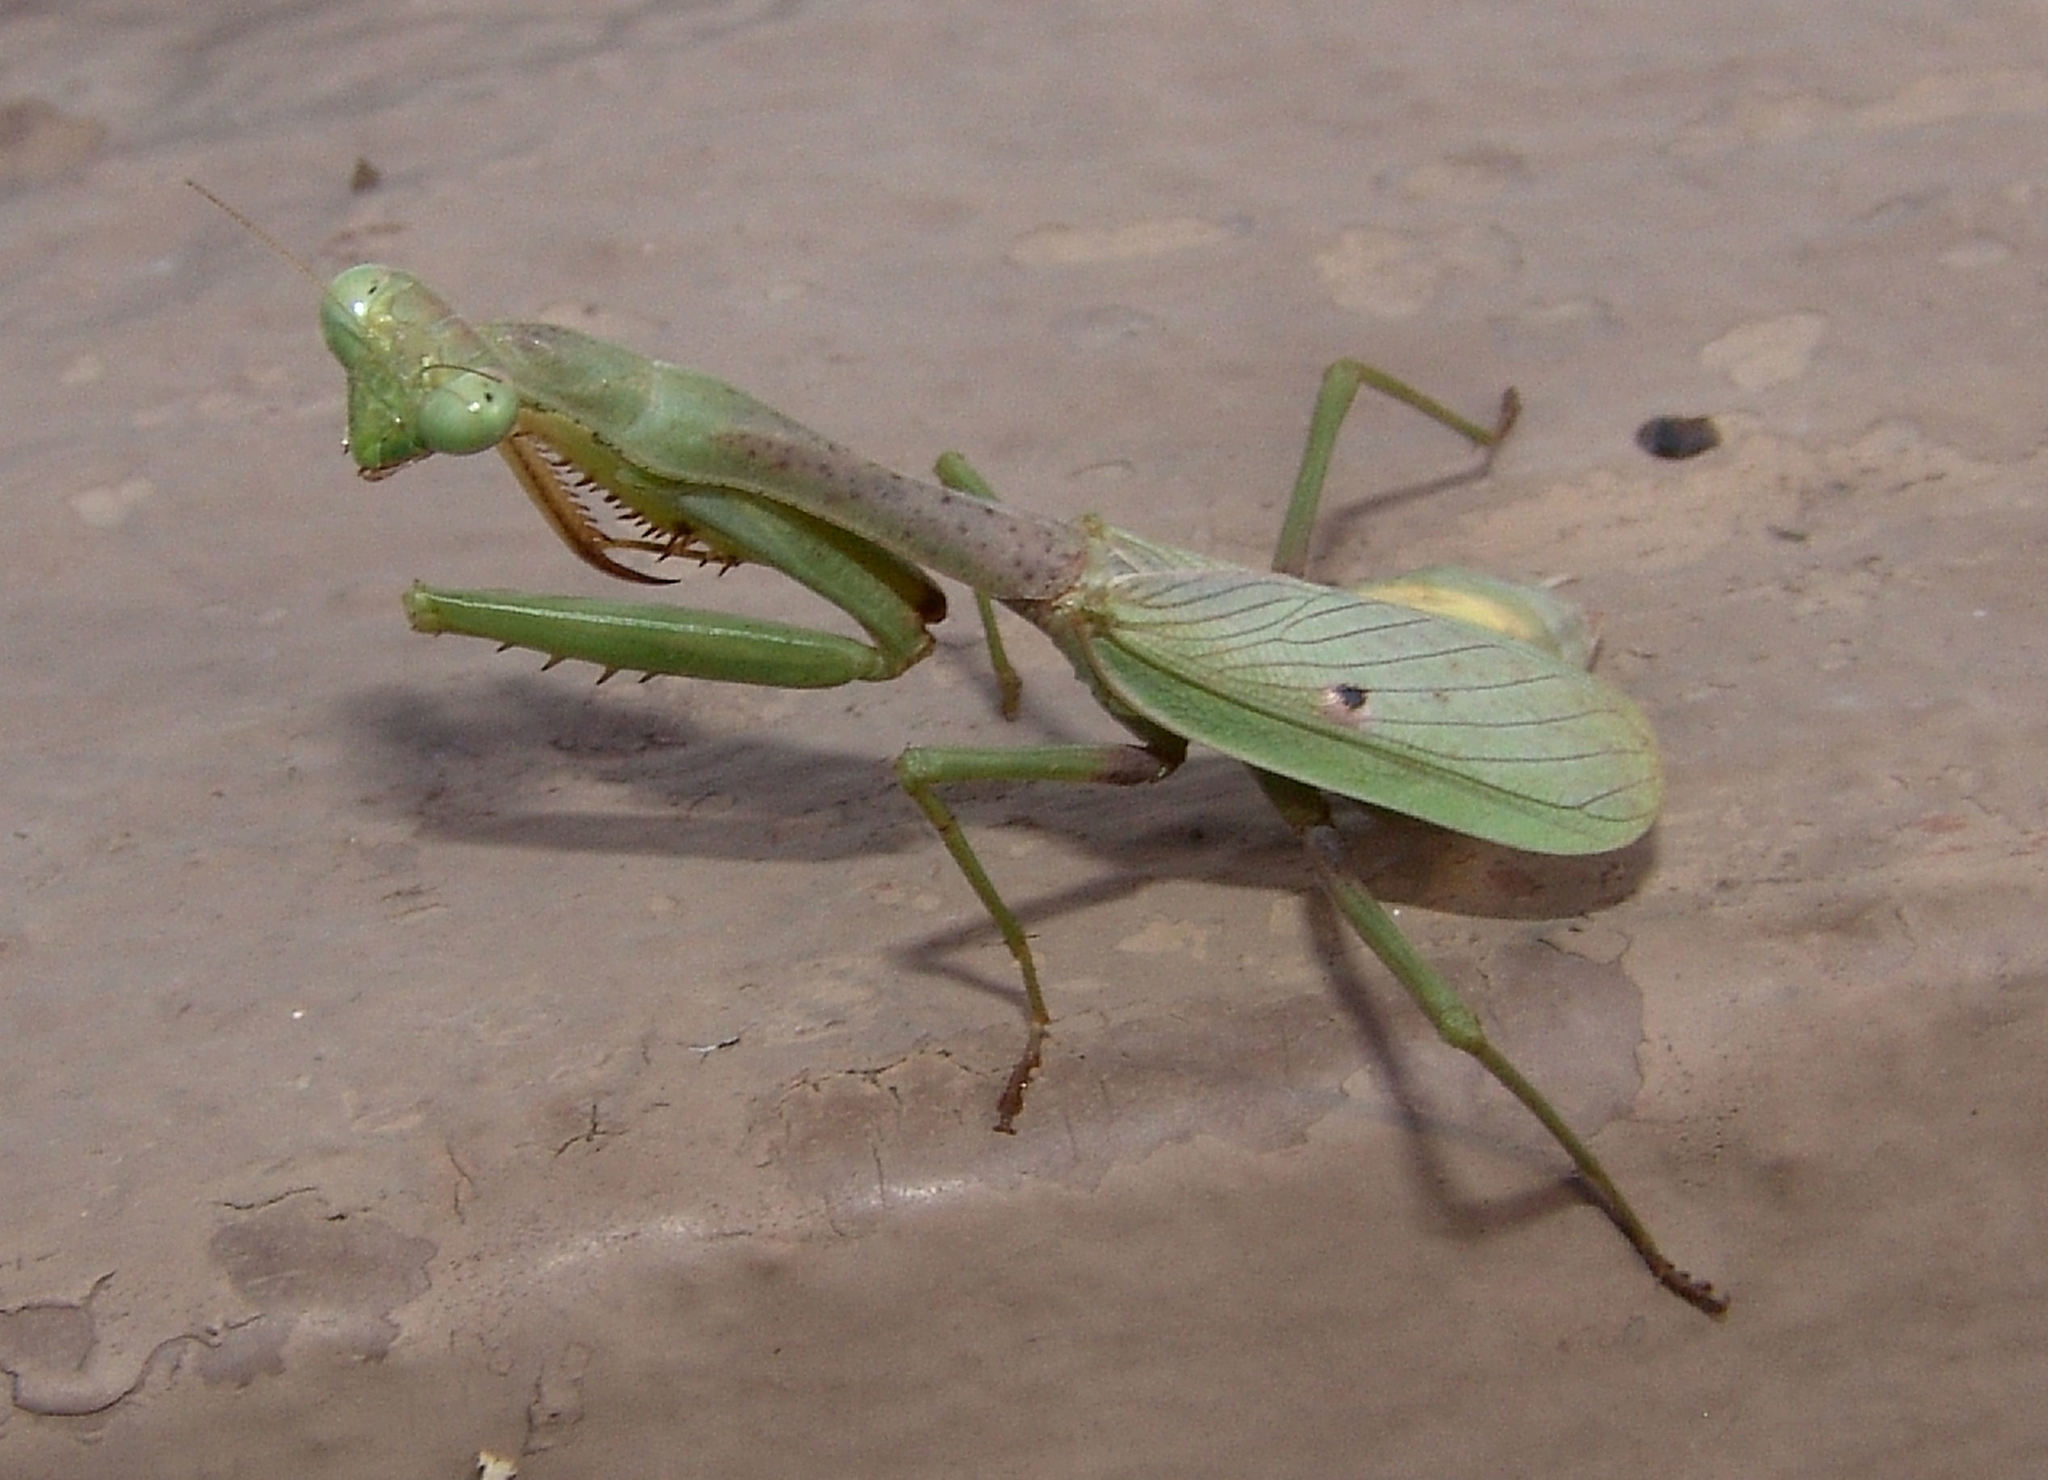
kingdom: Animalia
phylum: Arthropoda
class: Insecta
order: Mantodea
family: Mantidae
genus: Stagmomantis
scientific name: Stagmomantis carolina
